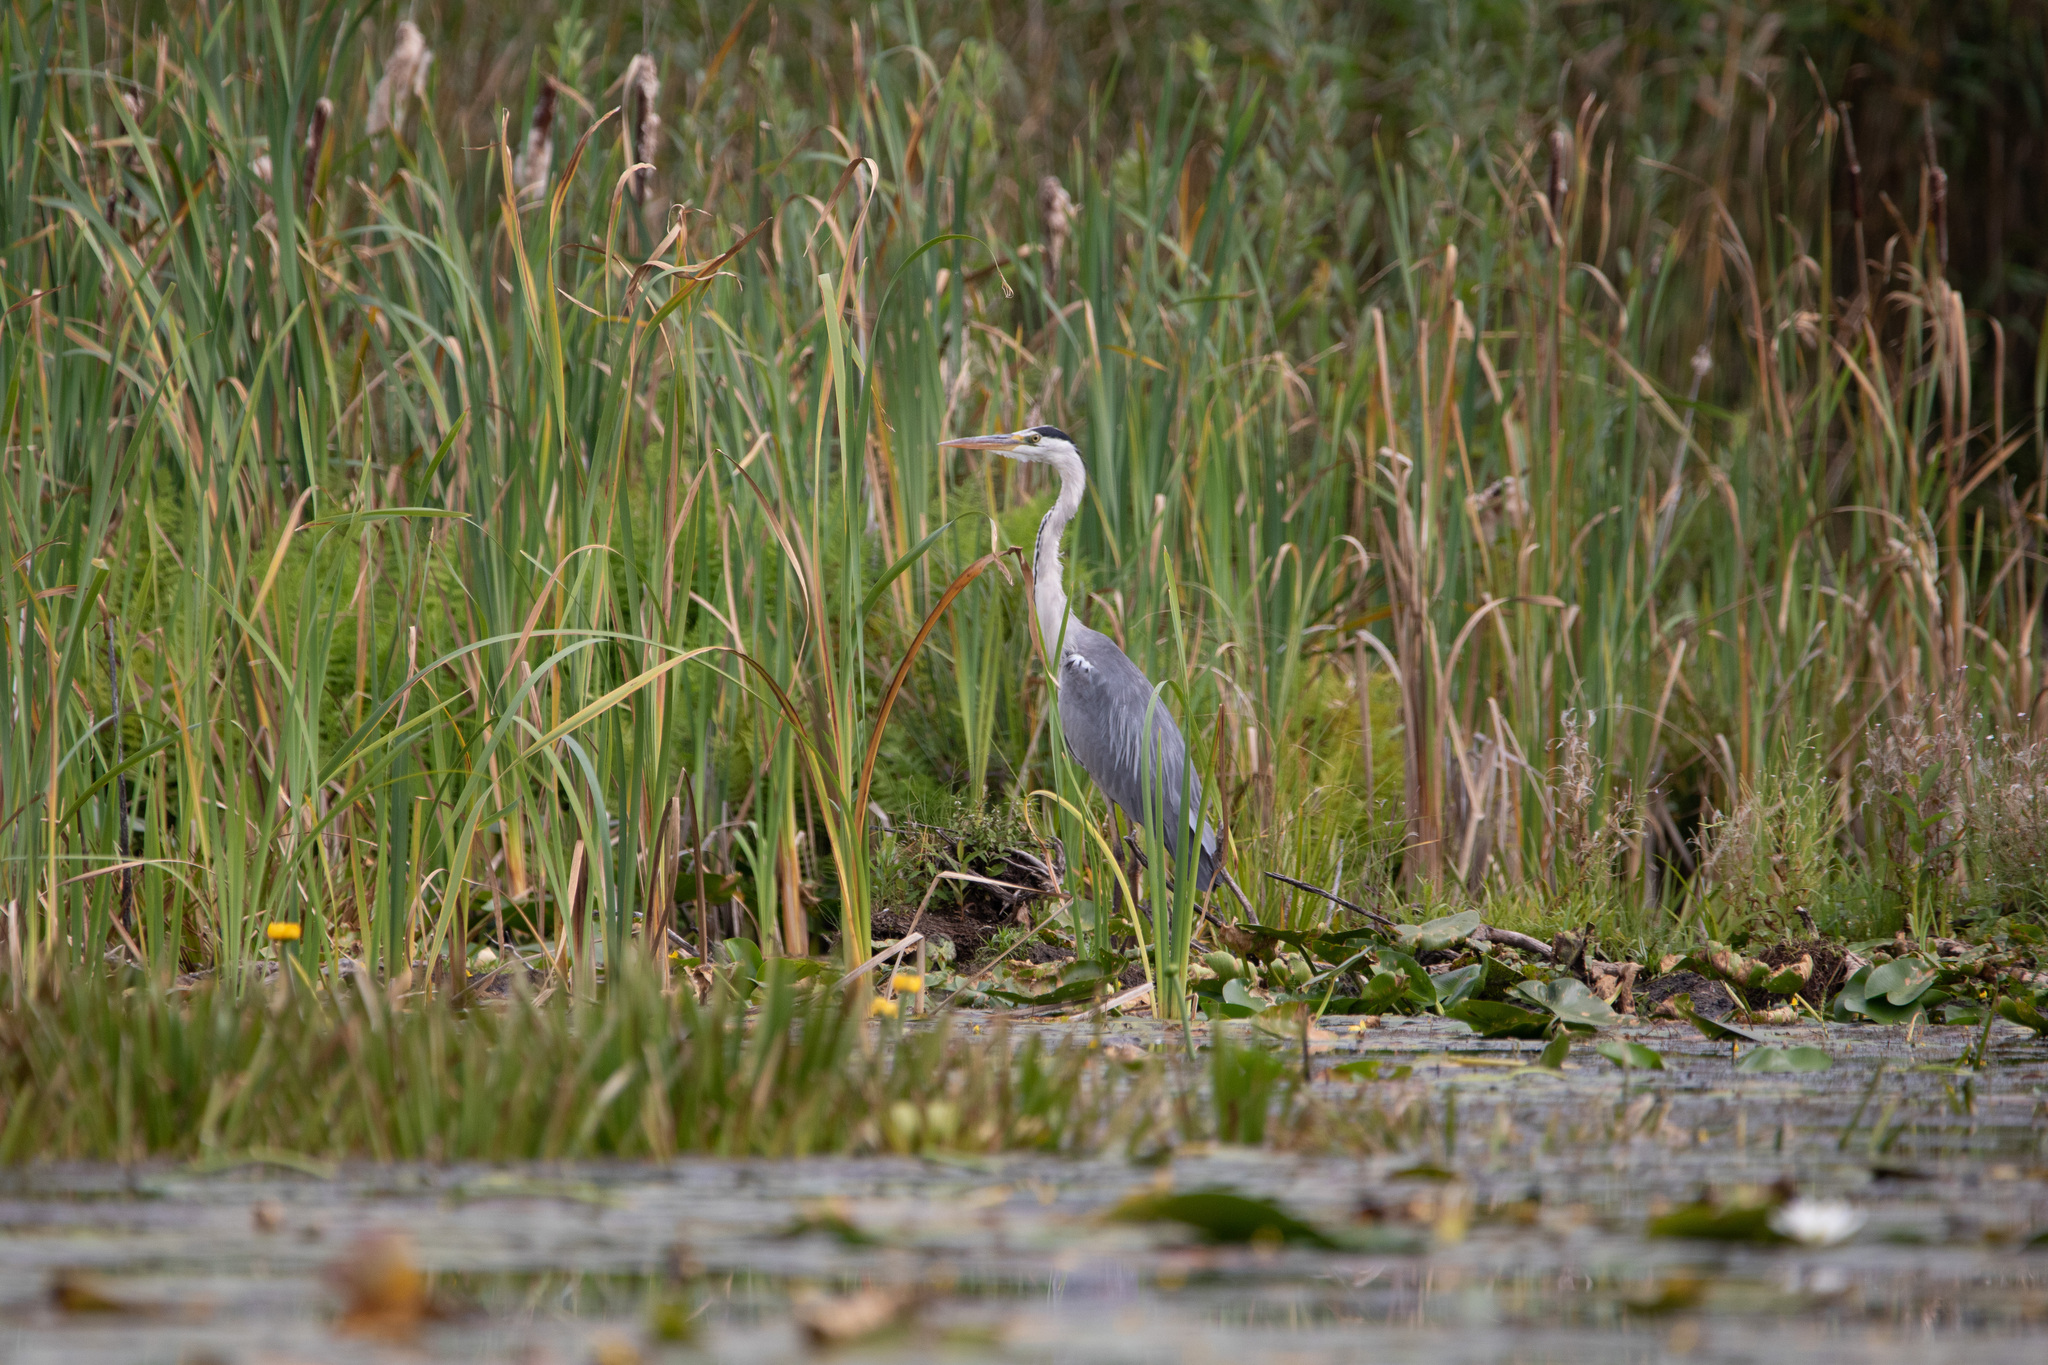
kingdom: Animalia
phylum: Chordata
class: Aves
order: Pelecaniformes
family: Ardeidae
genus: Ardea
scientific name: Ardea cinerea
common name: Grey heron
